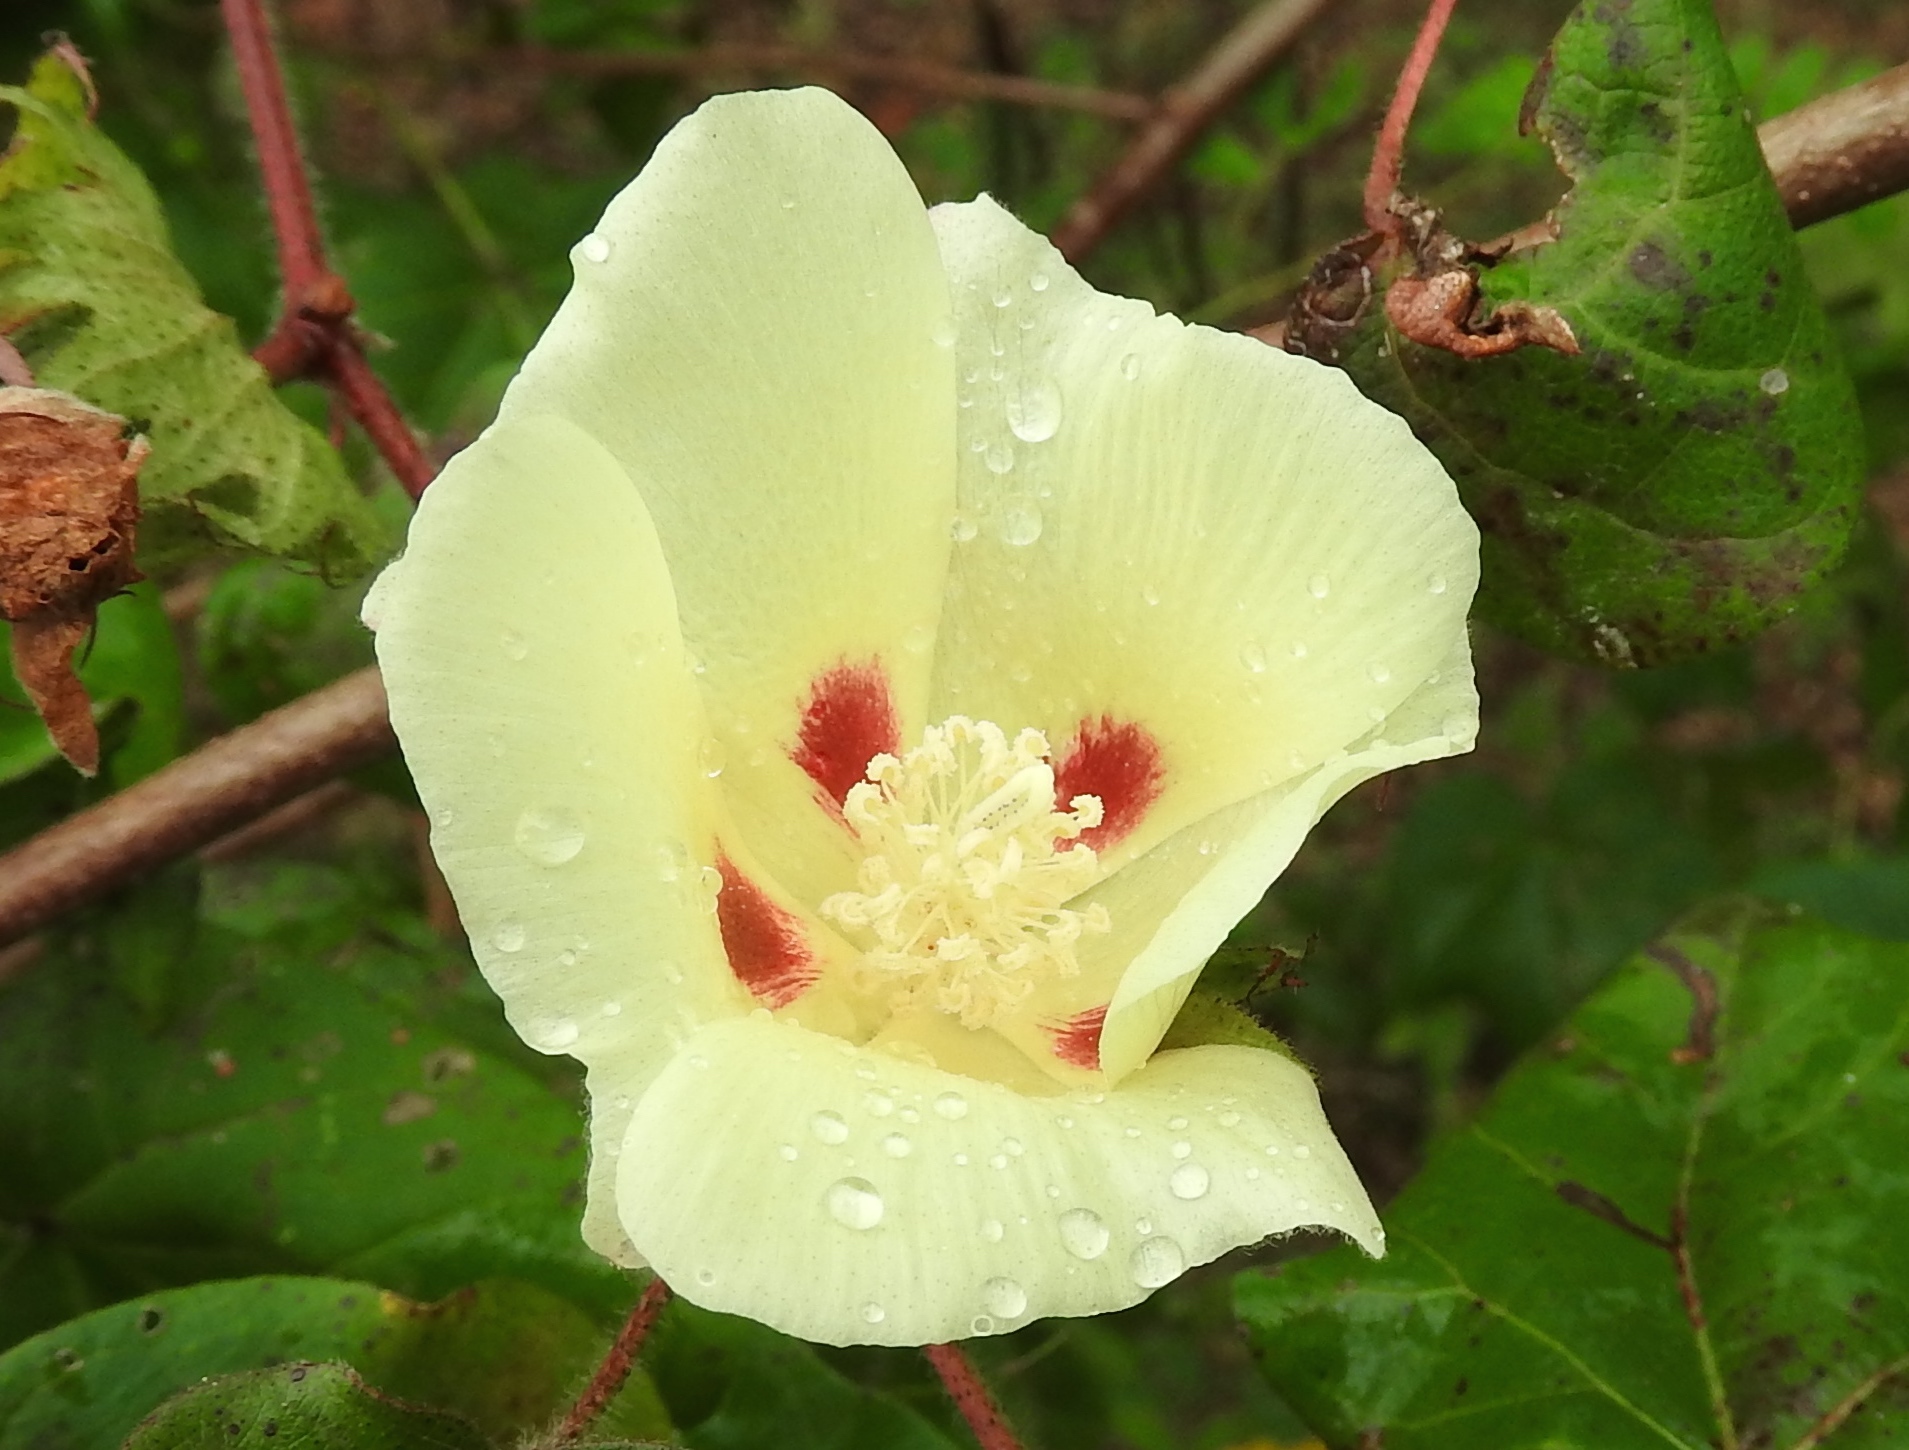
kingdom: Plantae
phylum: Tracheophyta
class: Magnoliopsida
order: Malvales
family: Malvaceae
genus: Gossypium
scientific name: Gossypium hirsutum
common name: Cotton
